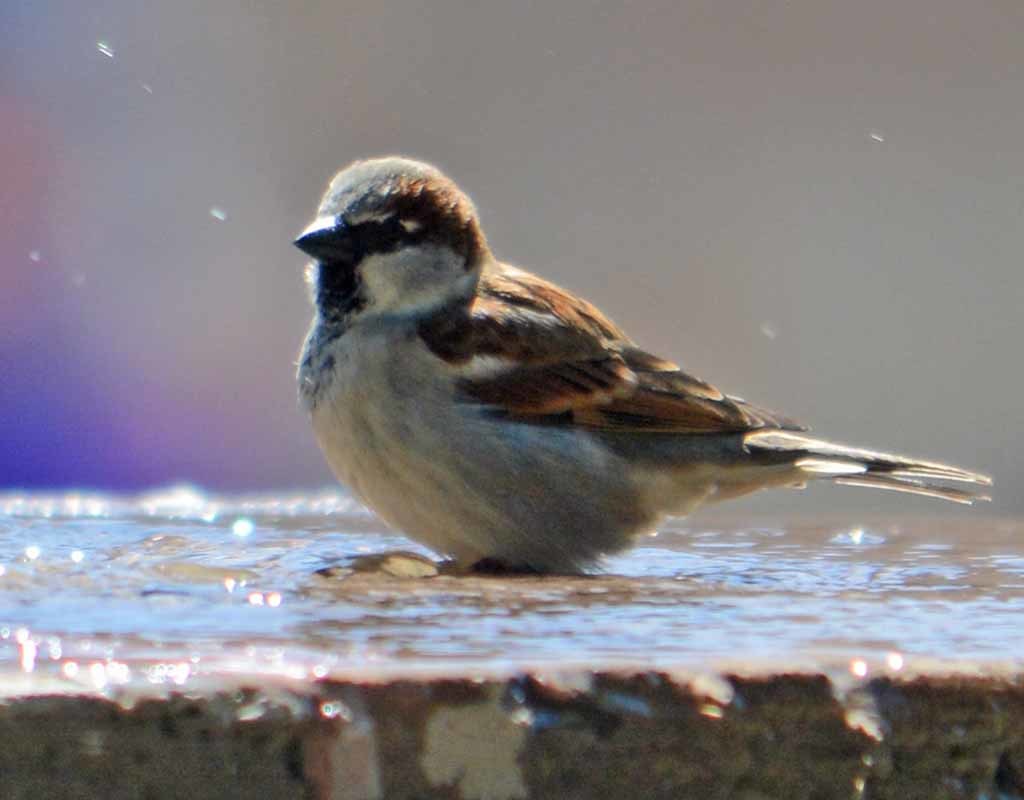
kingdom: Animalia
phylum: Chordata
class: Aves
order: Passeriformes
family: Passeridae
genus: Passer
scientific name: Passer domesticus
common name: House sparrow
